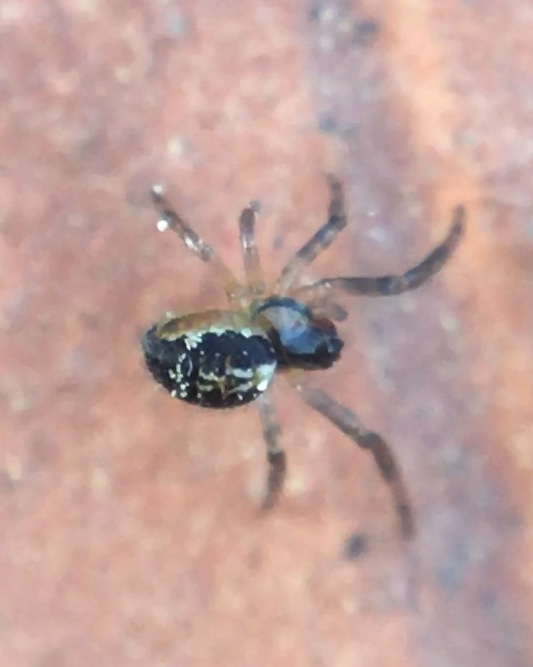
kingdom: Animalia
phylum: Arthropoda
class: Arachnida
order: Araneae
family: Araneidae
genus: Zygiella
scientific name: Zygiella
